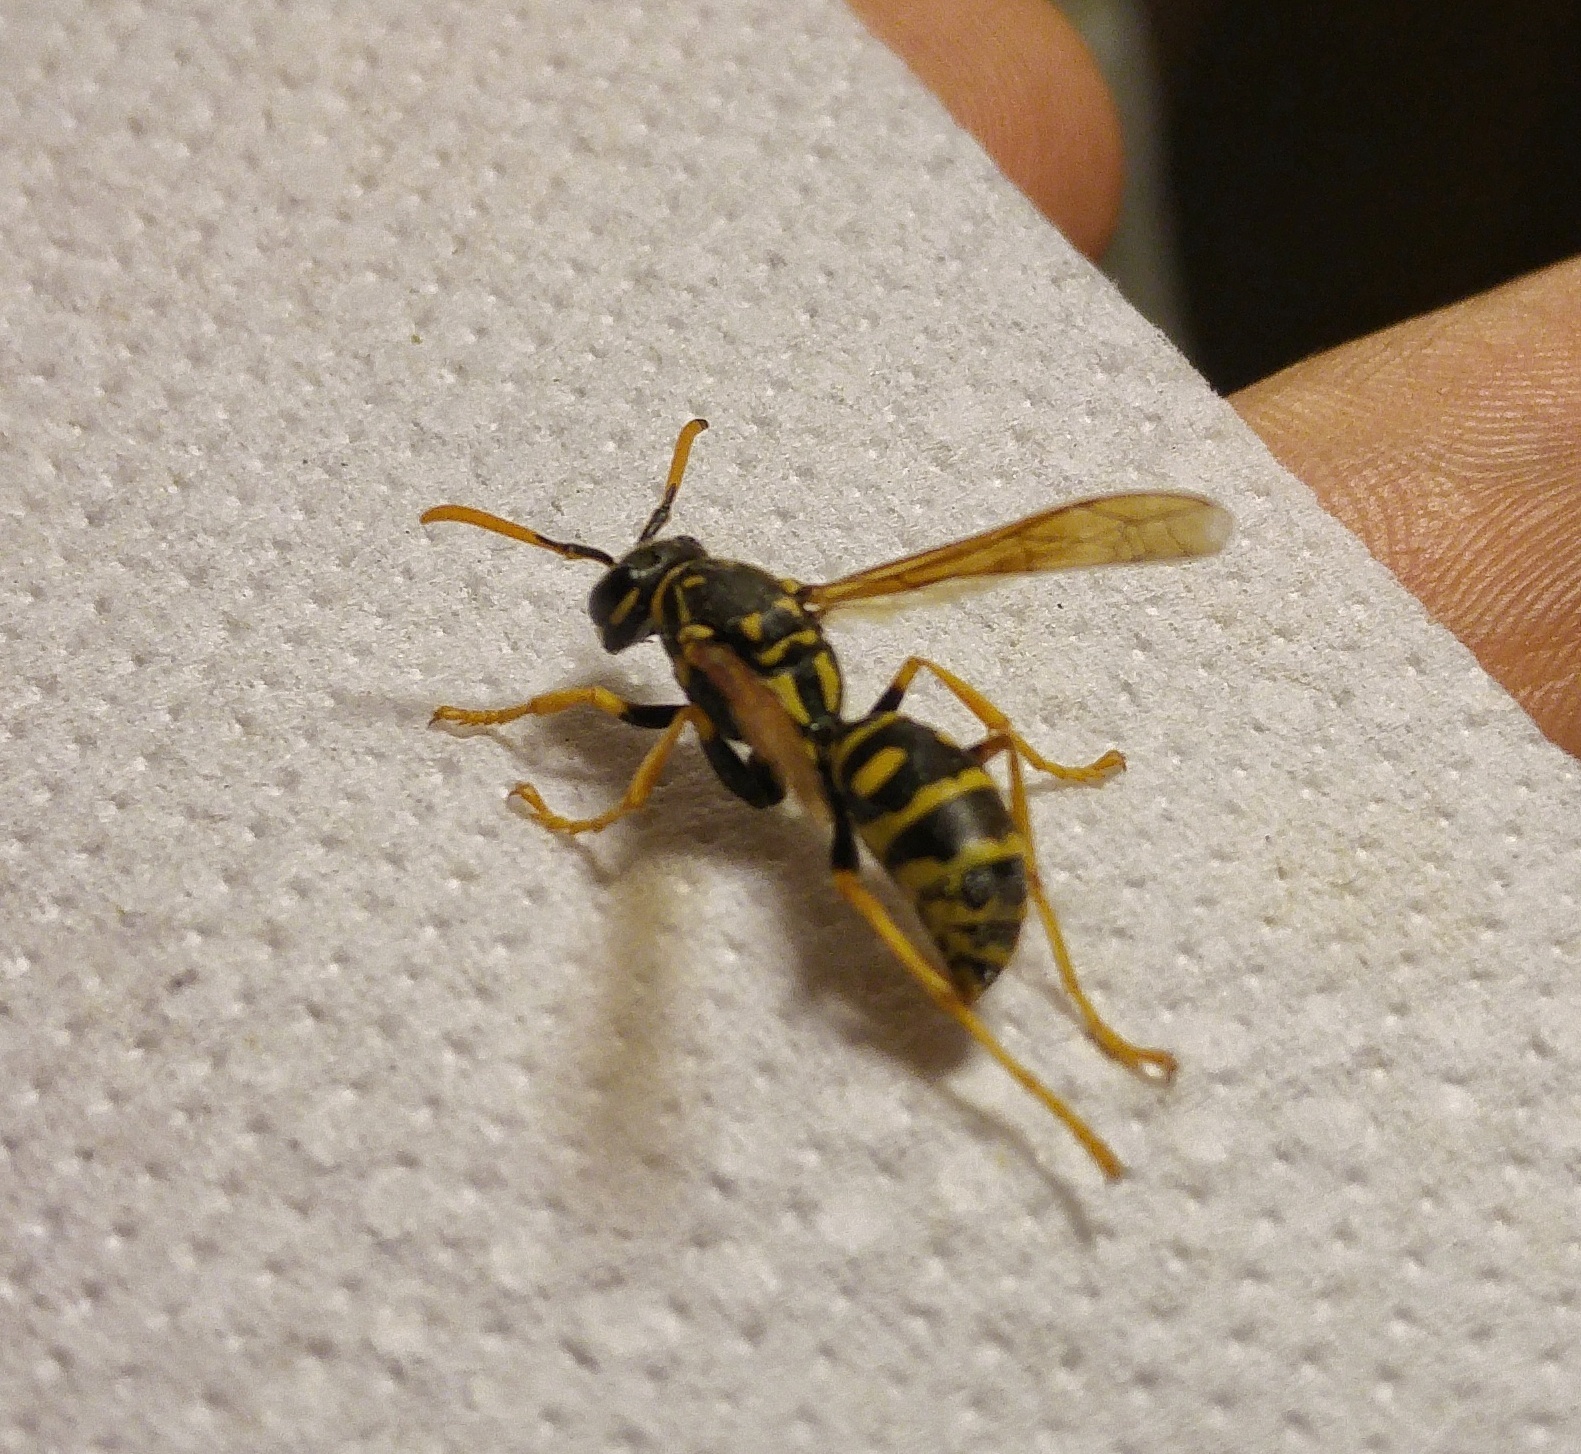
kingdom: Animalia
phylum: Arthropoda
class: Insecta
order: Hymenoptera
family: Eumenidae
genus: Polistes
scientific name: Polistes dominula
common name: Paper wasp
